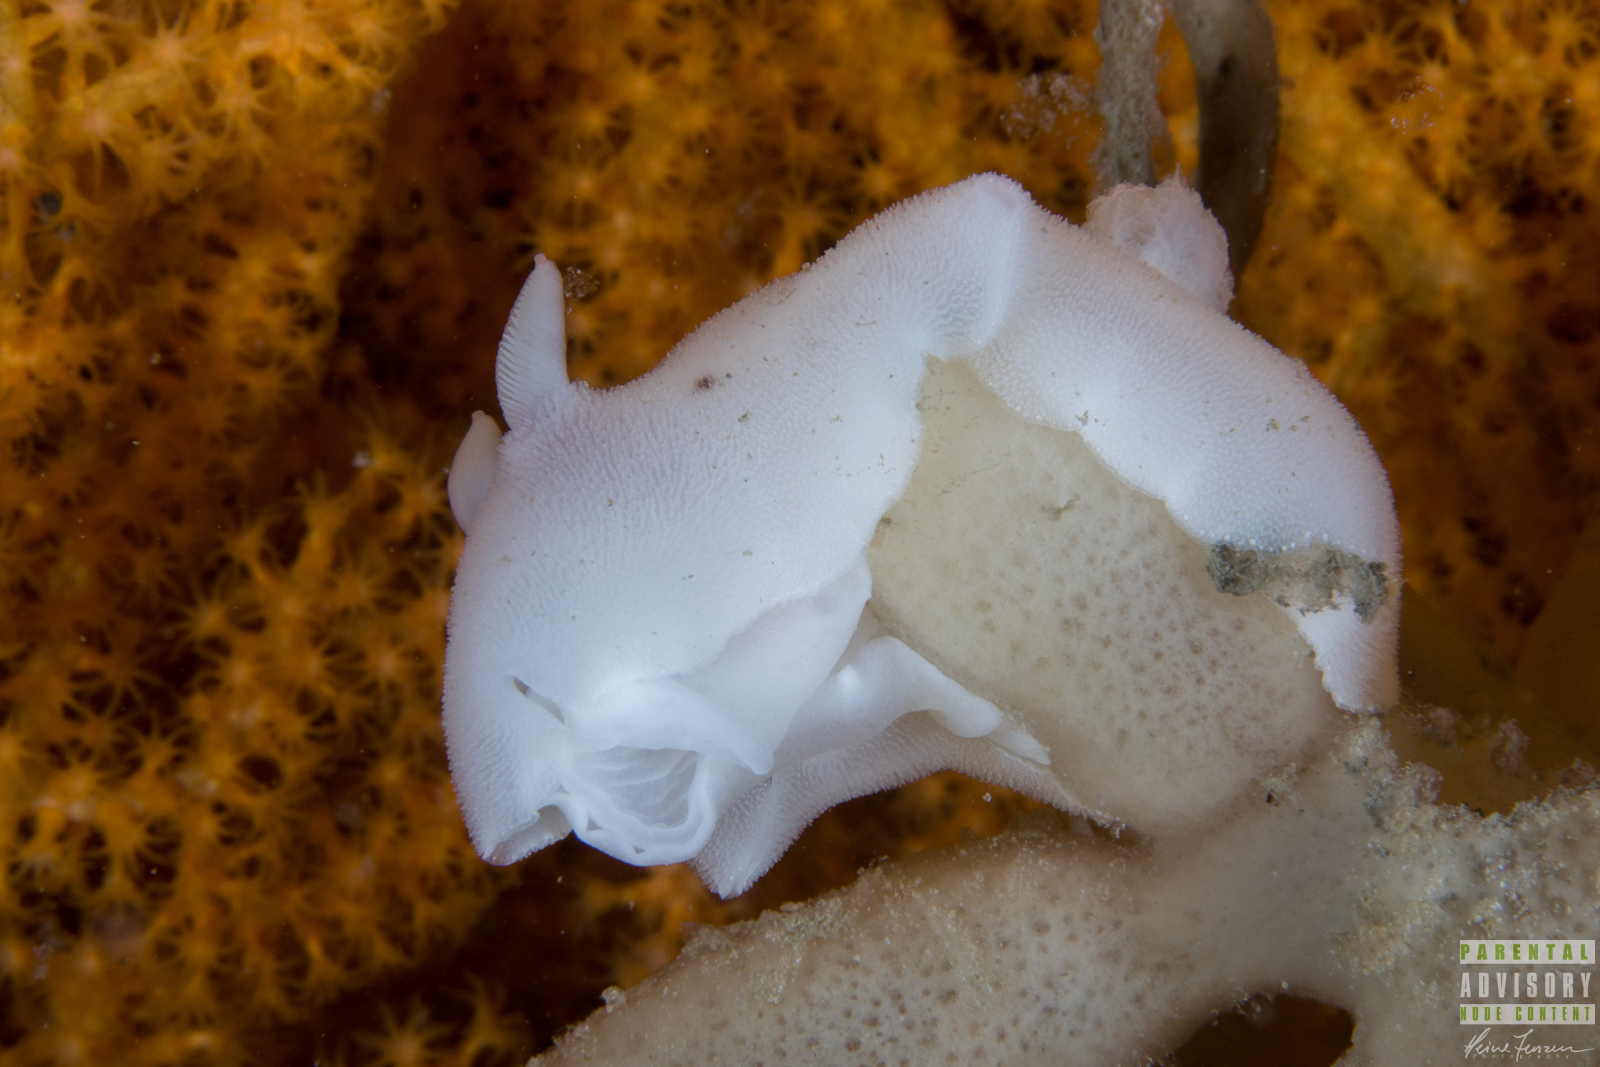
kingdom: Animalia
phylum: Mollusca
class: Gastropoda
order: Nudibranchia
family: Discodorididae
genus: Jorunna
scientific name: Jorunna tomentosa
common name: Grey sea slug
